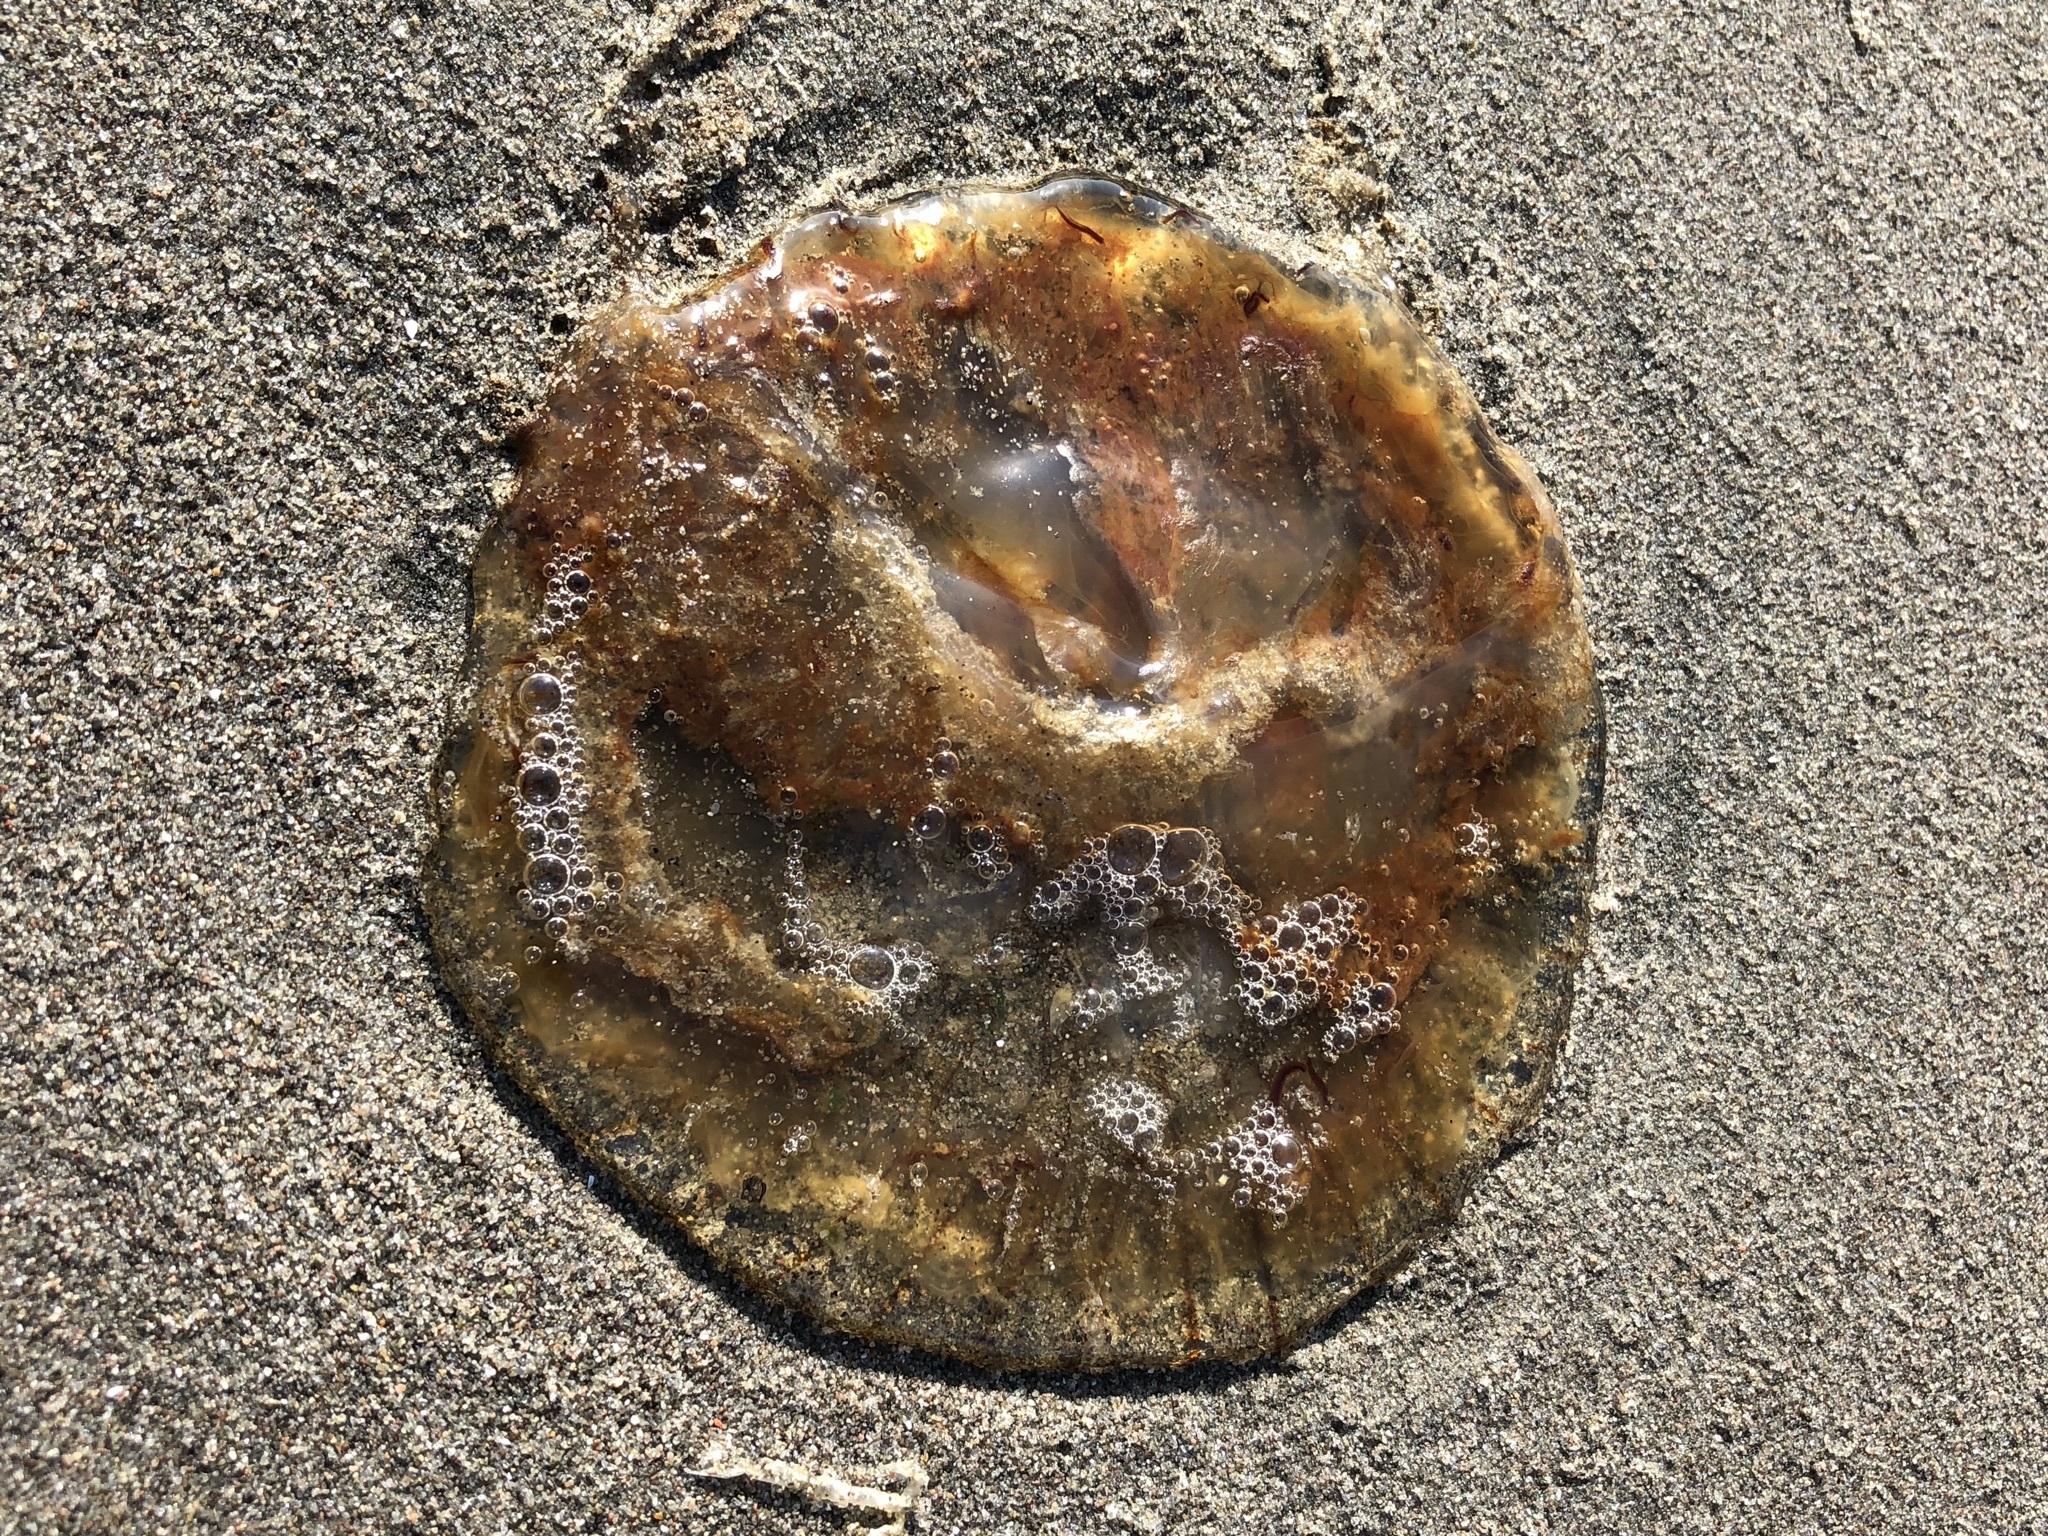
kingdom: Animalia
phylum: Cnidaria
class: Scyphozoa
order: Semaeostomeae
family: Pelagiidae
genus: Chrysaora
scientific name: Chrysaora plocamia
